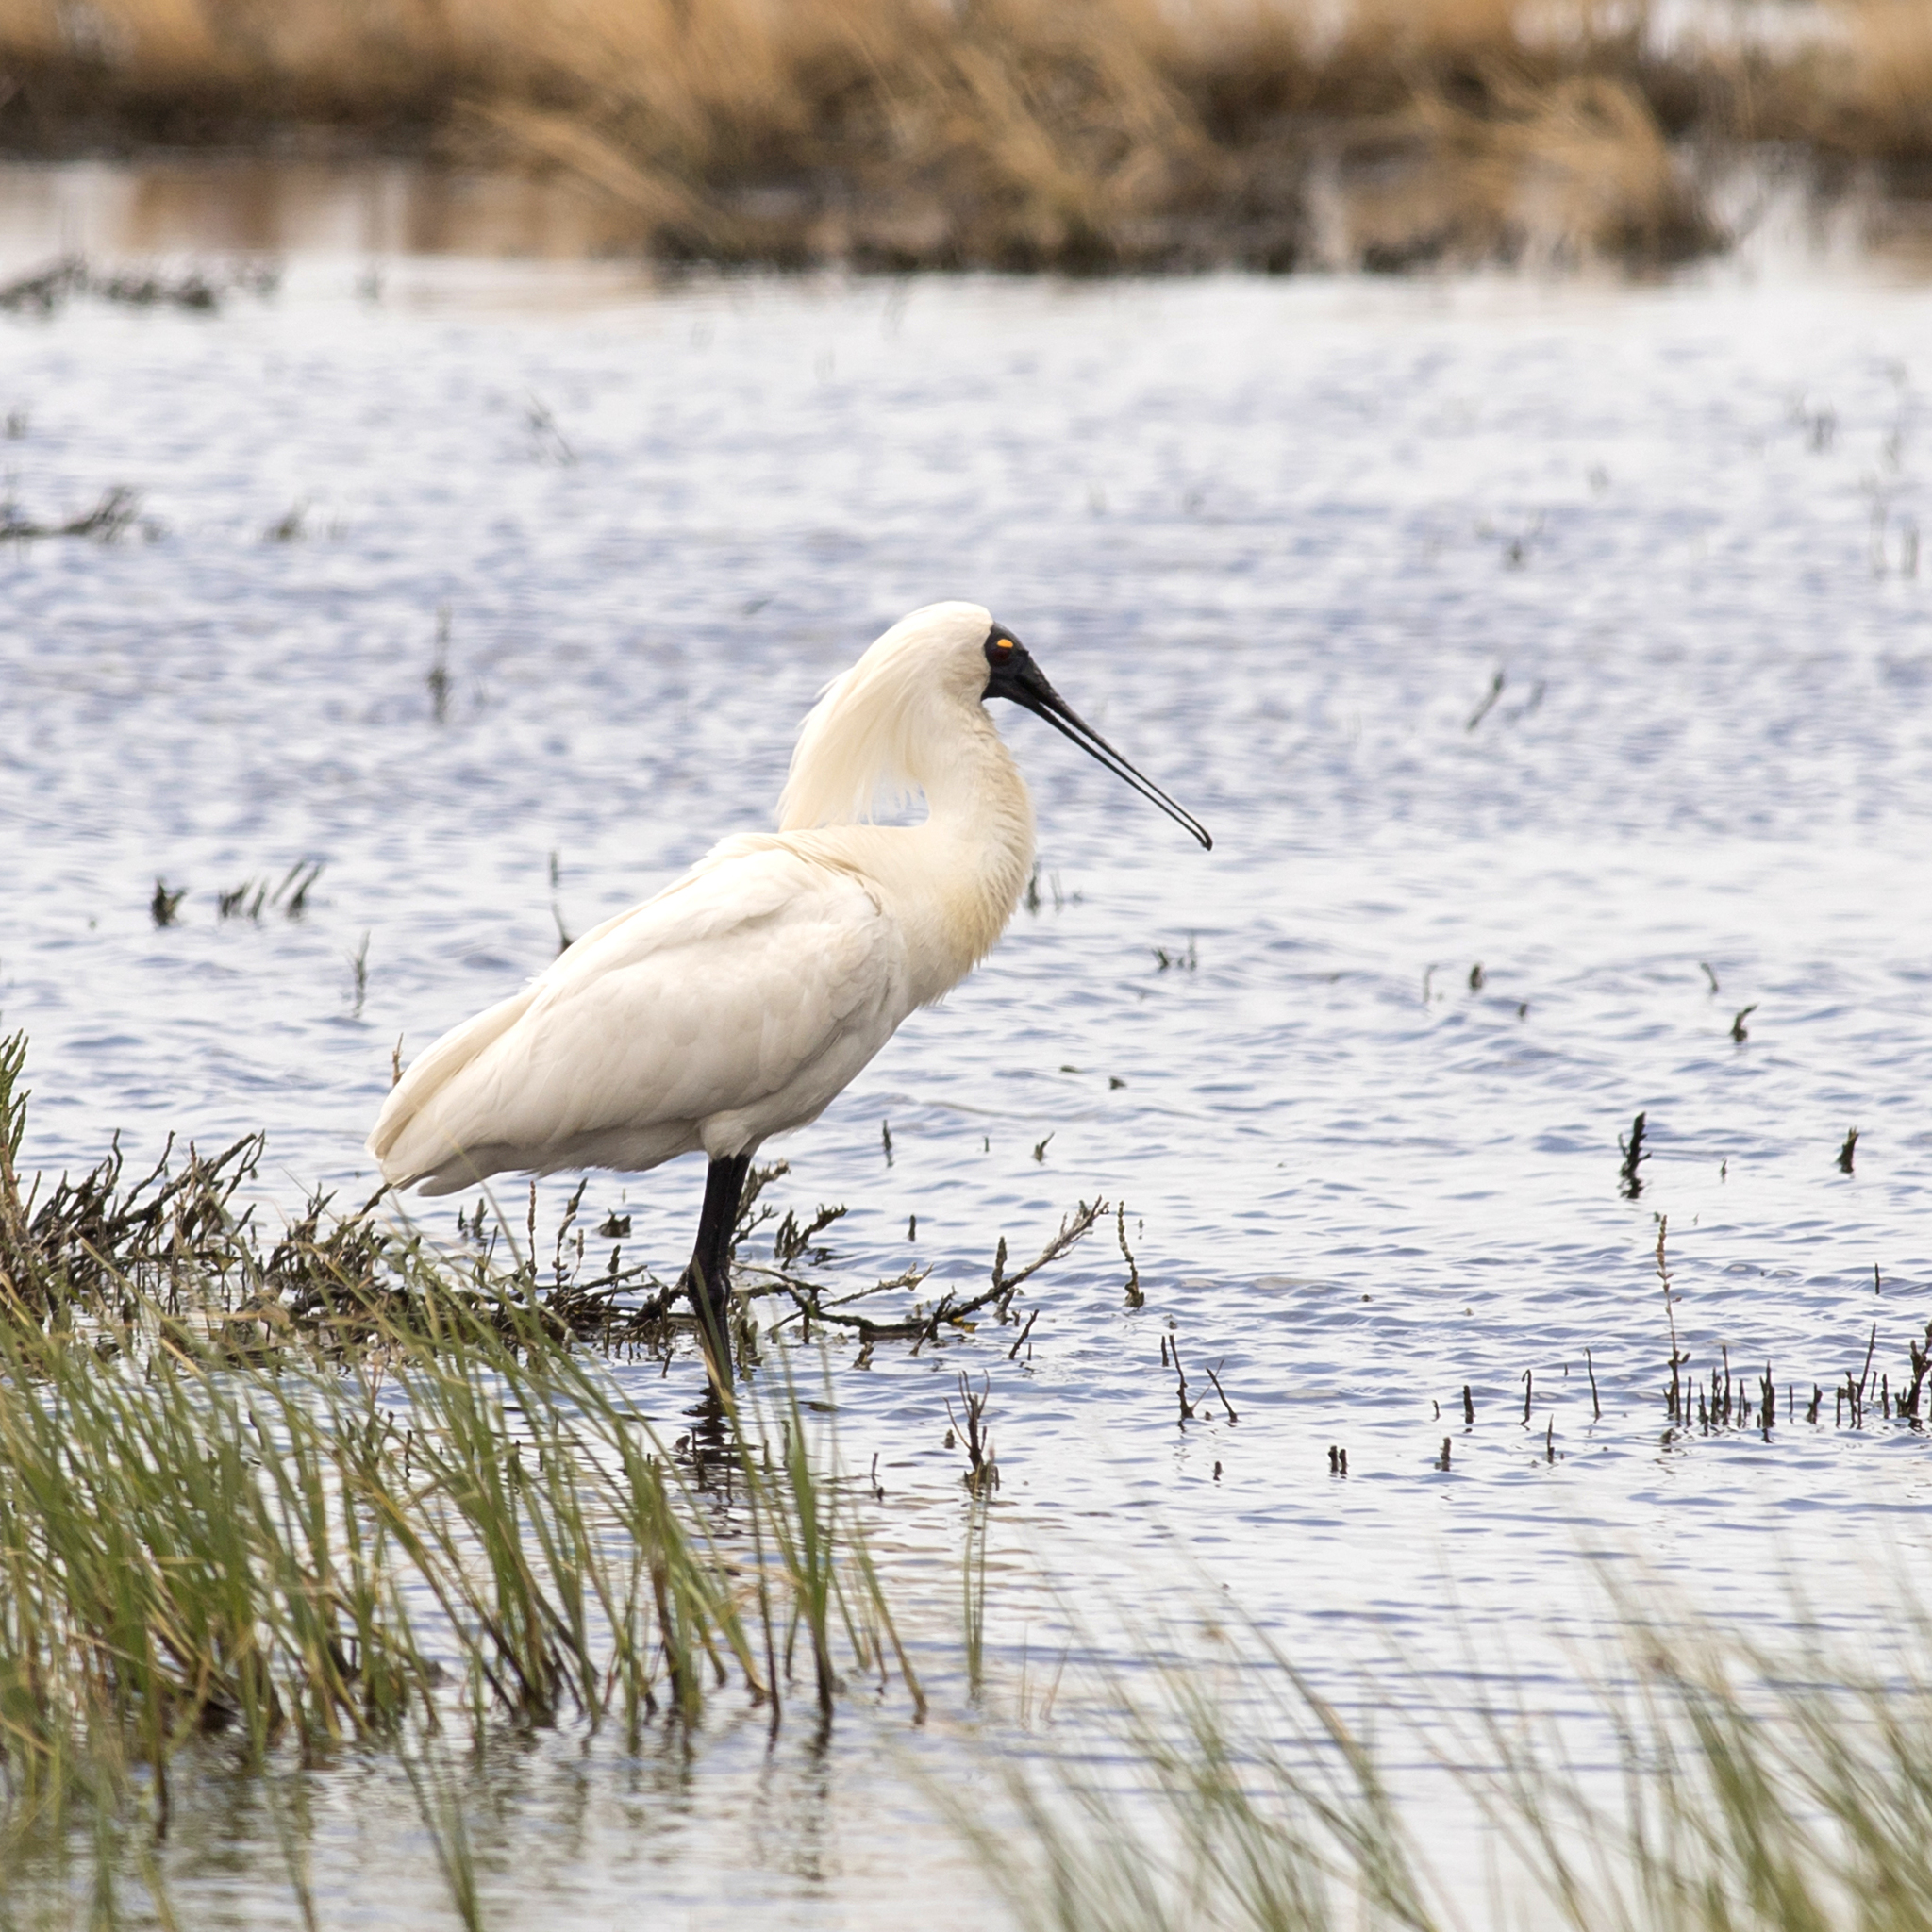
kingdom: Animalia
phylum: Chordata
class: Aves
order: Pelecaniformes
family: Threskiornithidae
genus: Platalea
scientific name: Platalea regia
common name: Royal spoonbill
